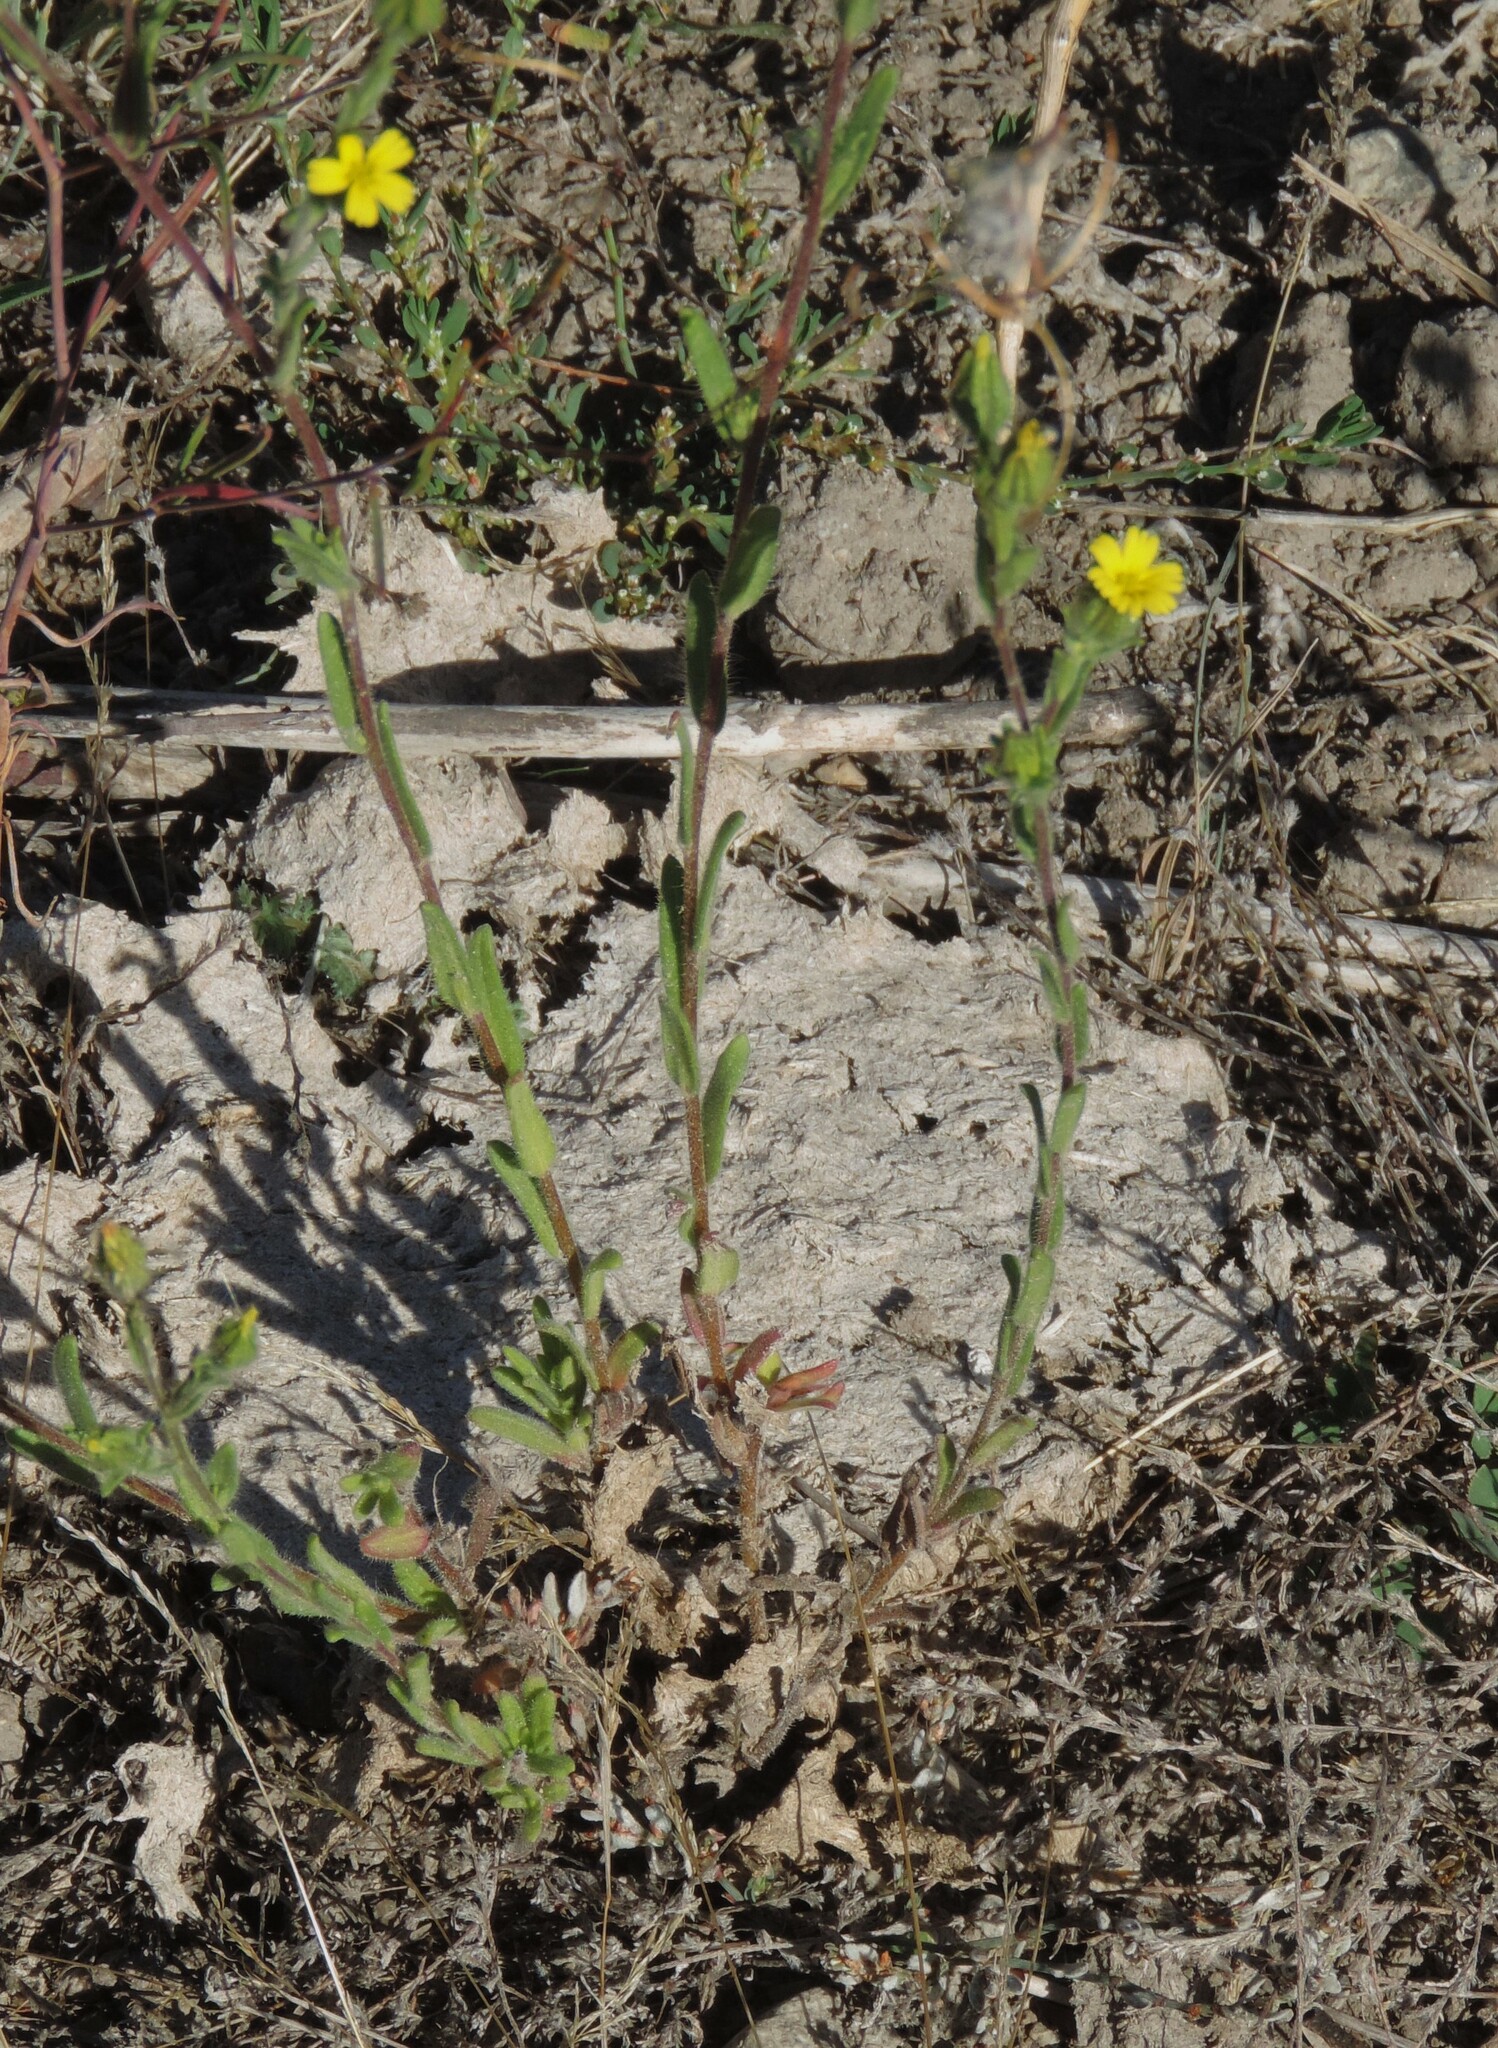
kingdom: Plantae
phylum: Tracheophyta
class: Magnoliopsida
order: Asterales
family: Asteraceae
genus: Madia
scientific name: Madia gracilis
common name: Grassy tarweed
